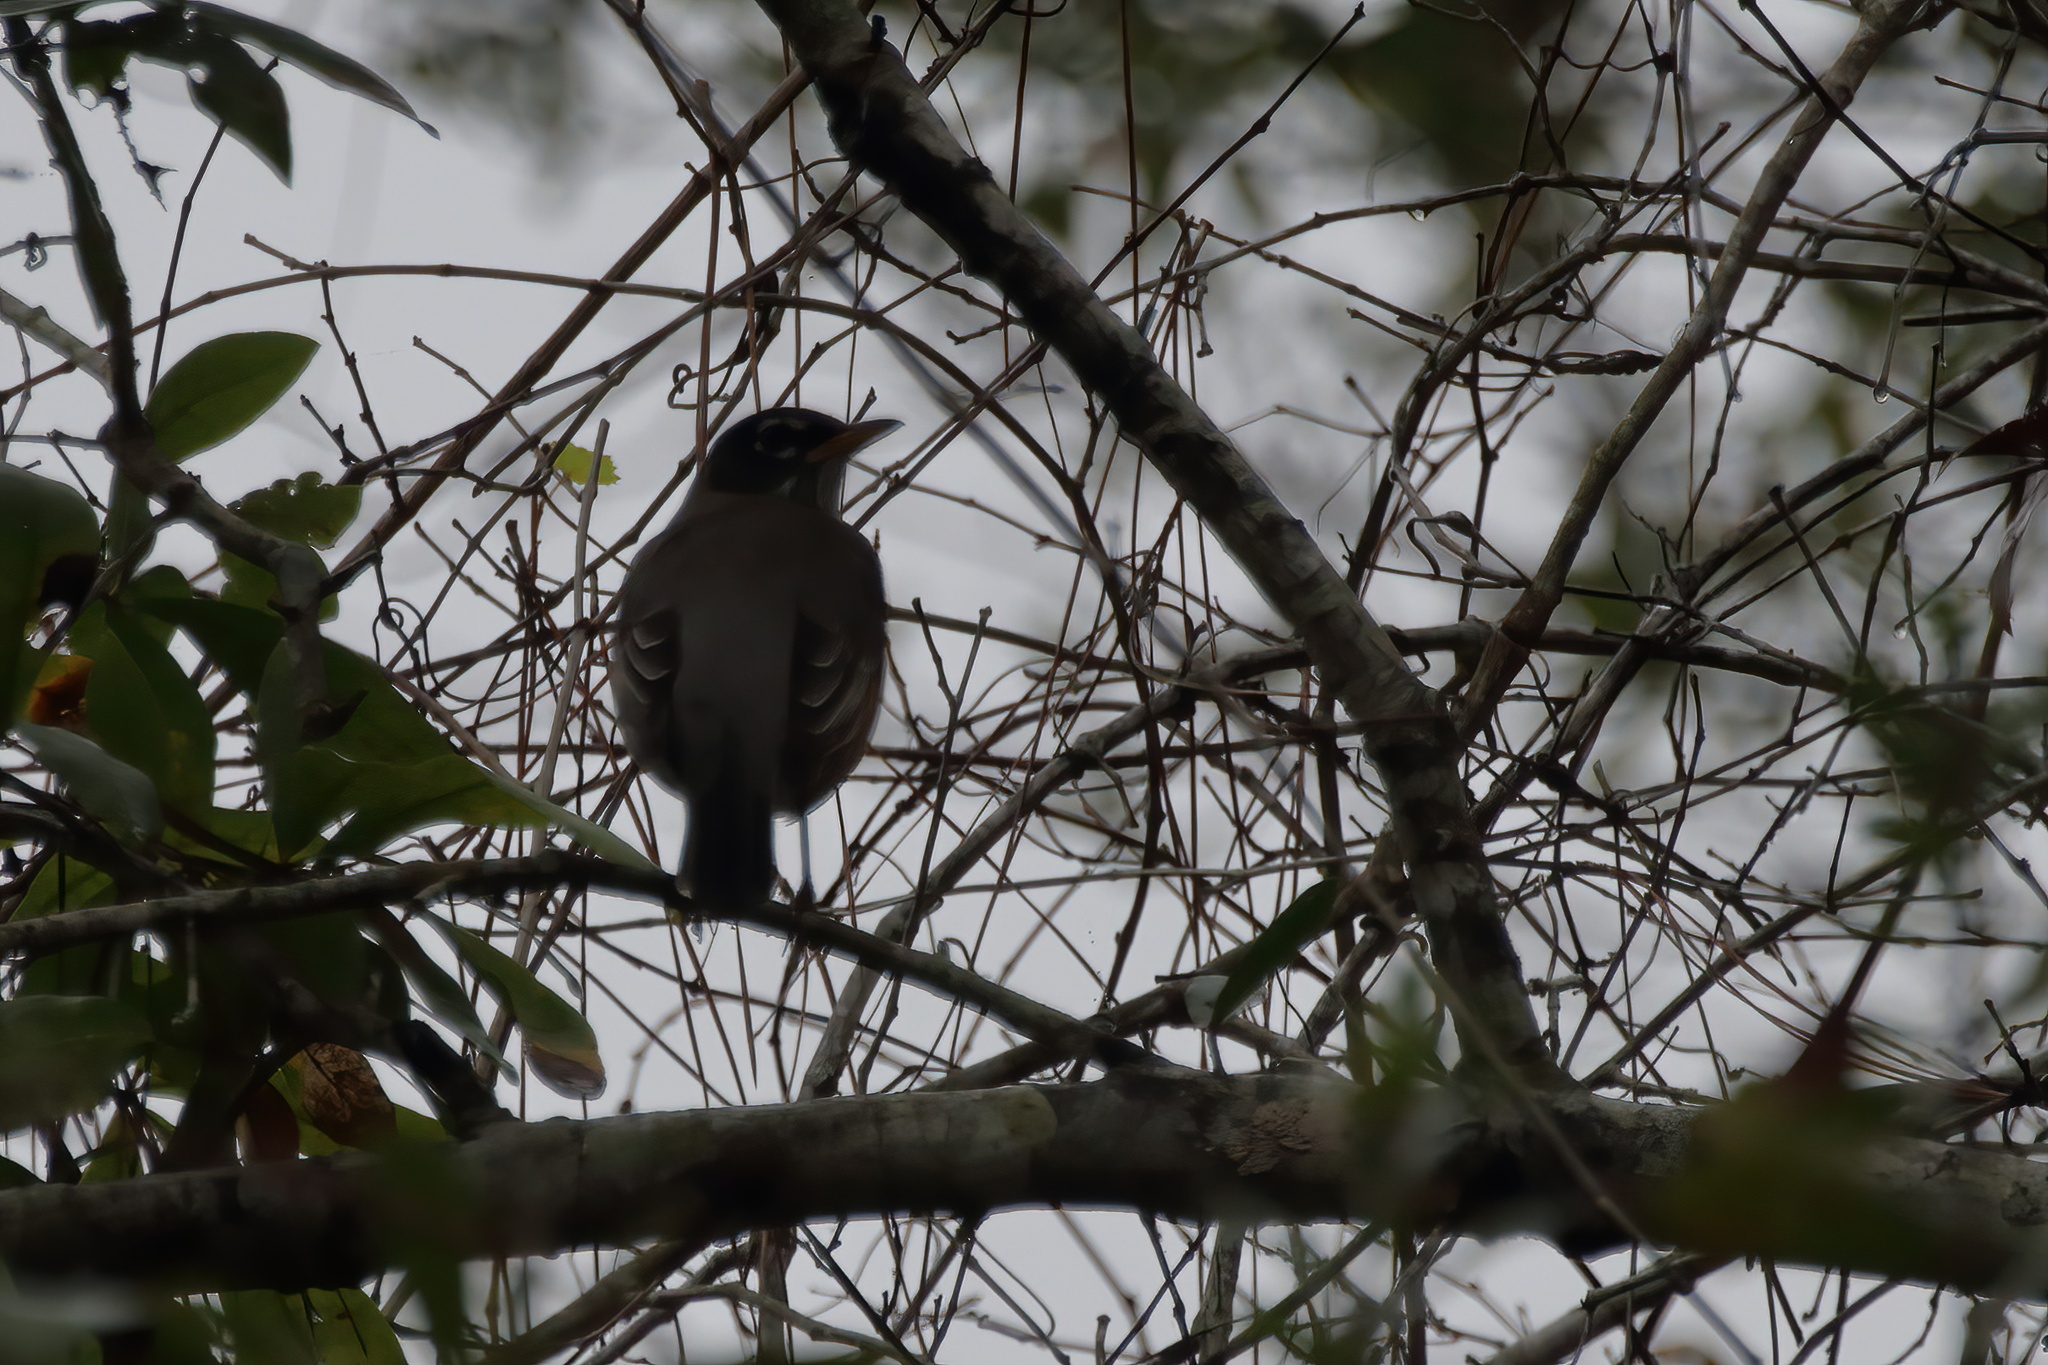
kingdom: Animalia
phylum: Chordata
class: Aves
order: Passeriformes
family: Turdidae
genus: Turdus
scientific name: Turdus migratorius
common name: American robin
